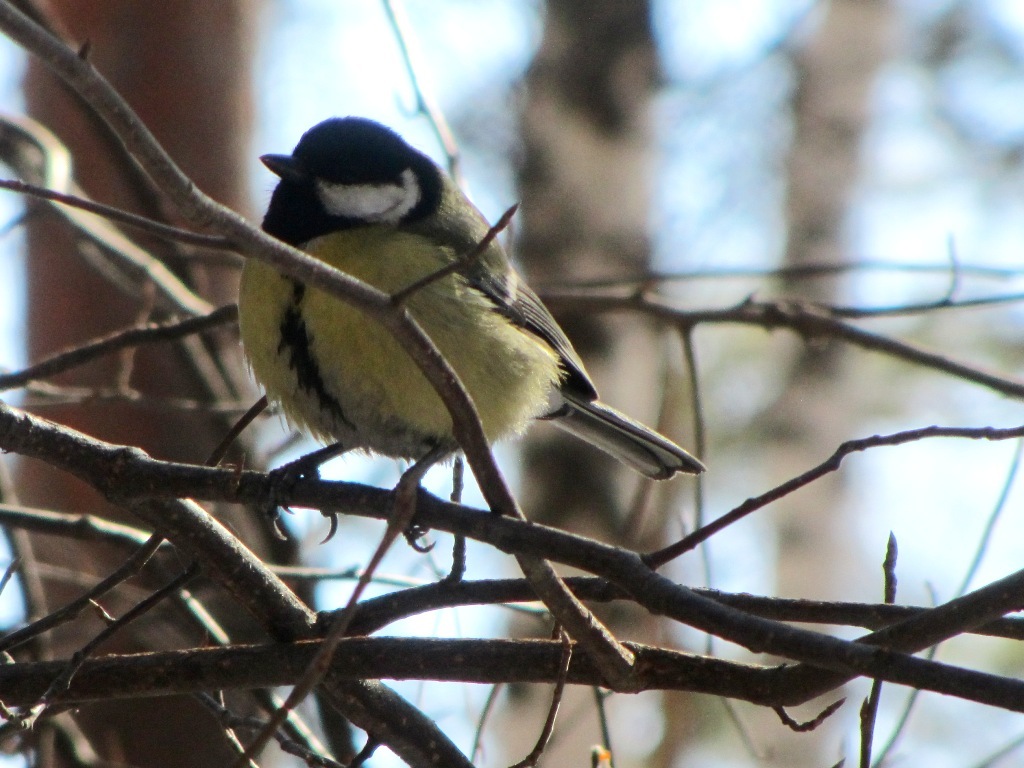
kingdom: Animalia
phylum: Chordata
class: Aves
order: Passeriformes
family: Paridae
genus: Parus
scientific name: Parus major
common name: Great tit
